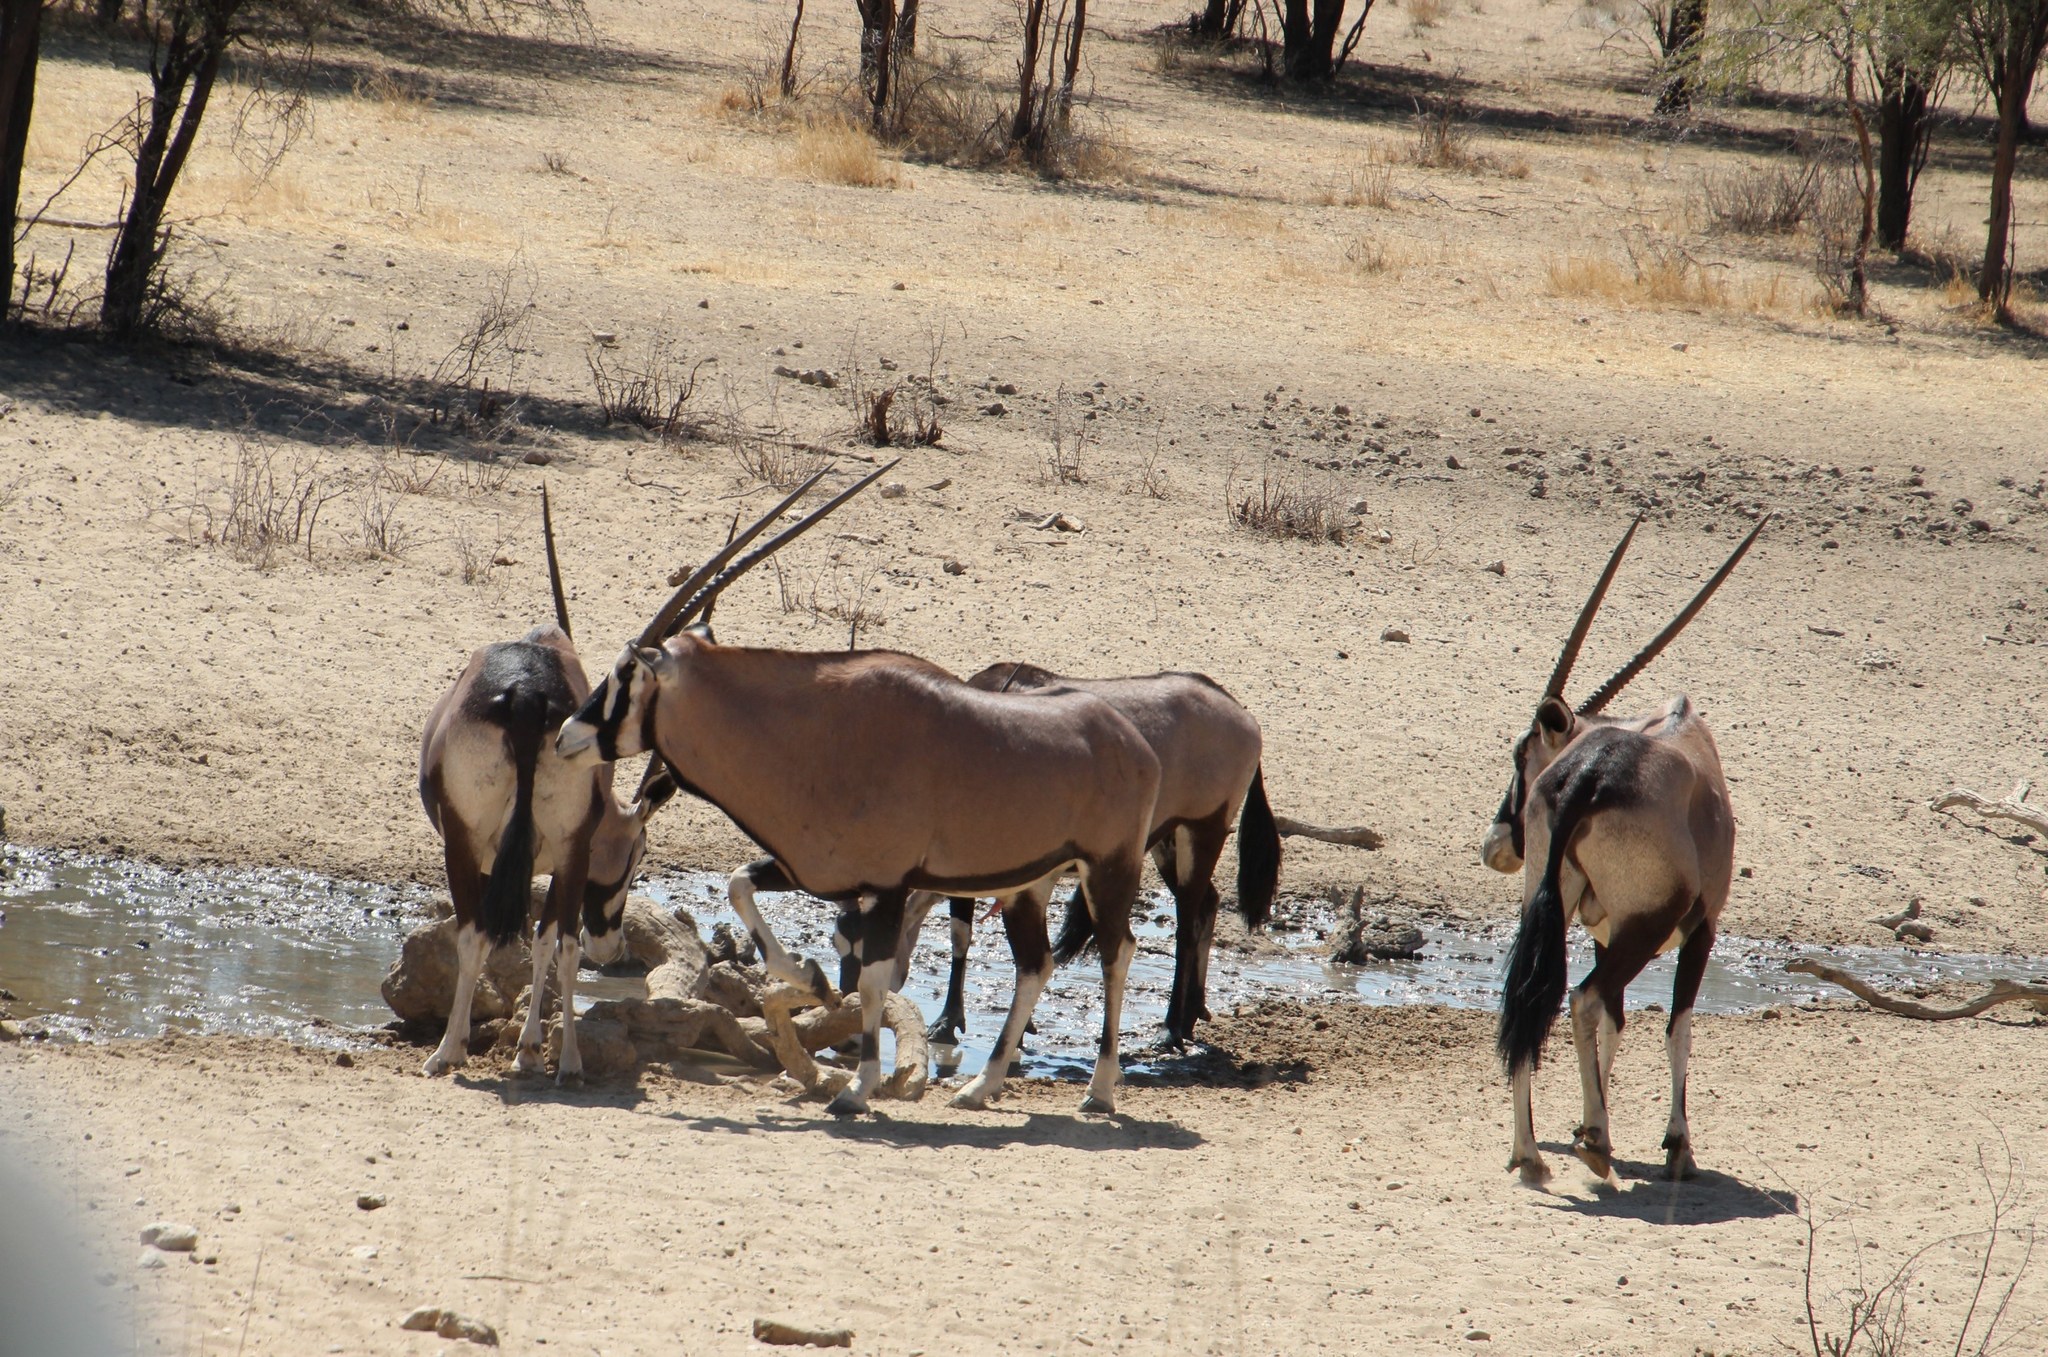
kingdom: Animalia
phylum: Chordata
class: Mammalia
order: Artiodactyla
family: Bovidae
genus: Oryx
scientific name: Oryx gazella
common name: Gemsbok
